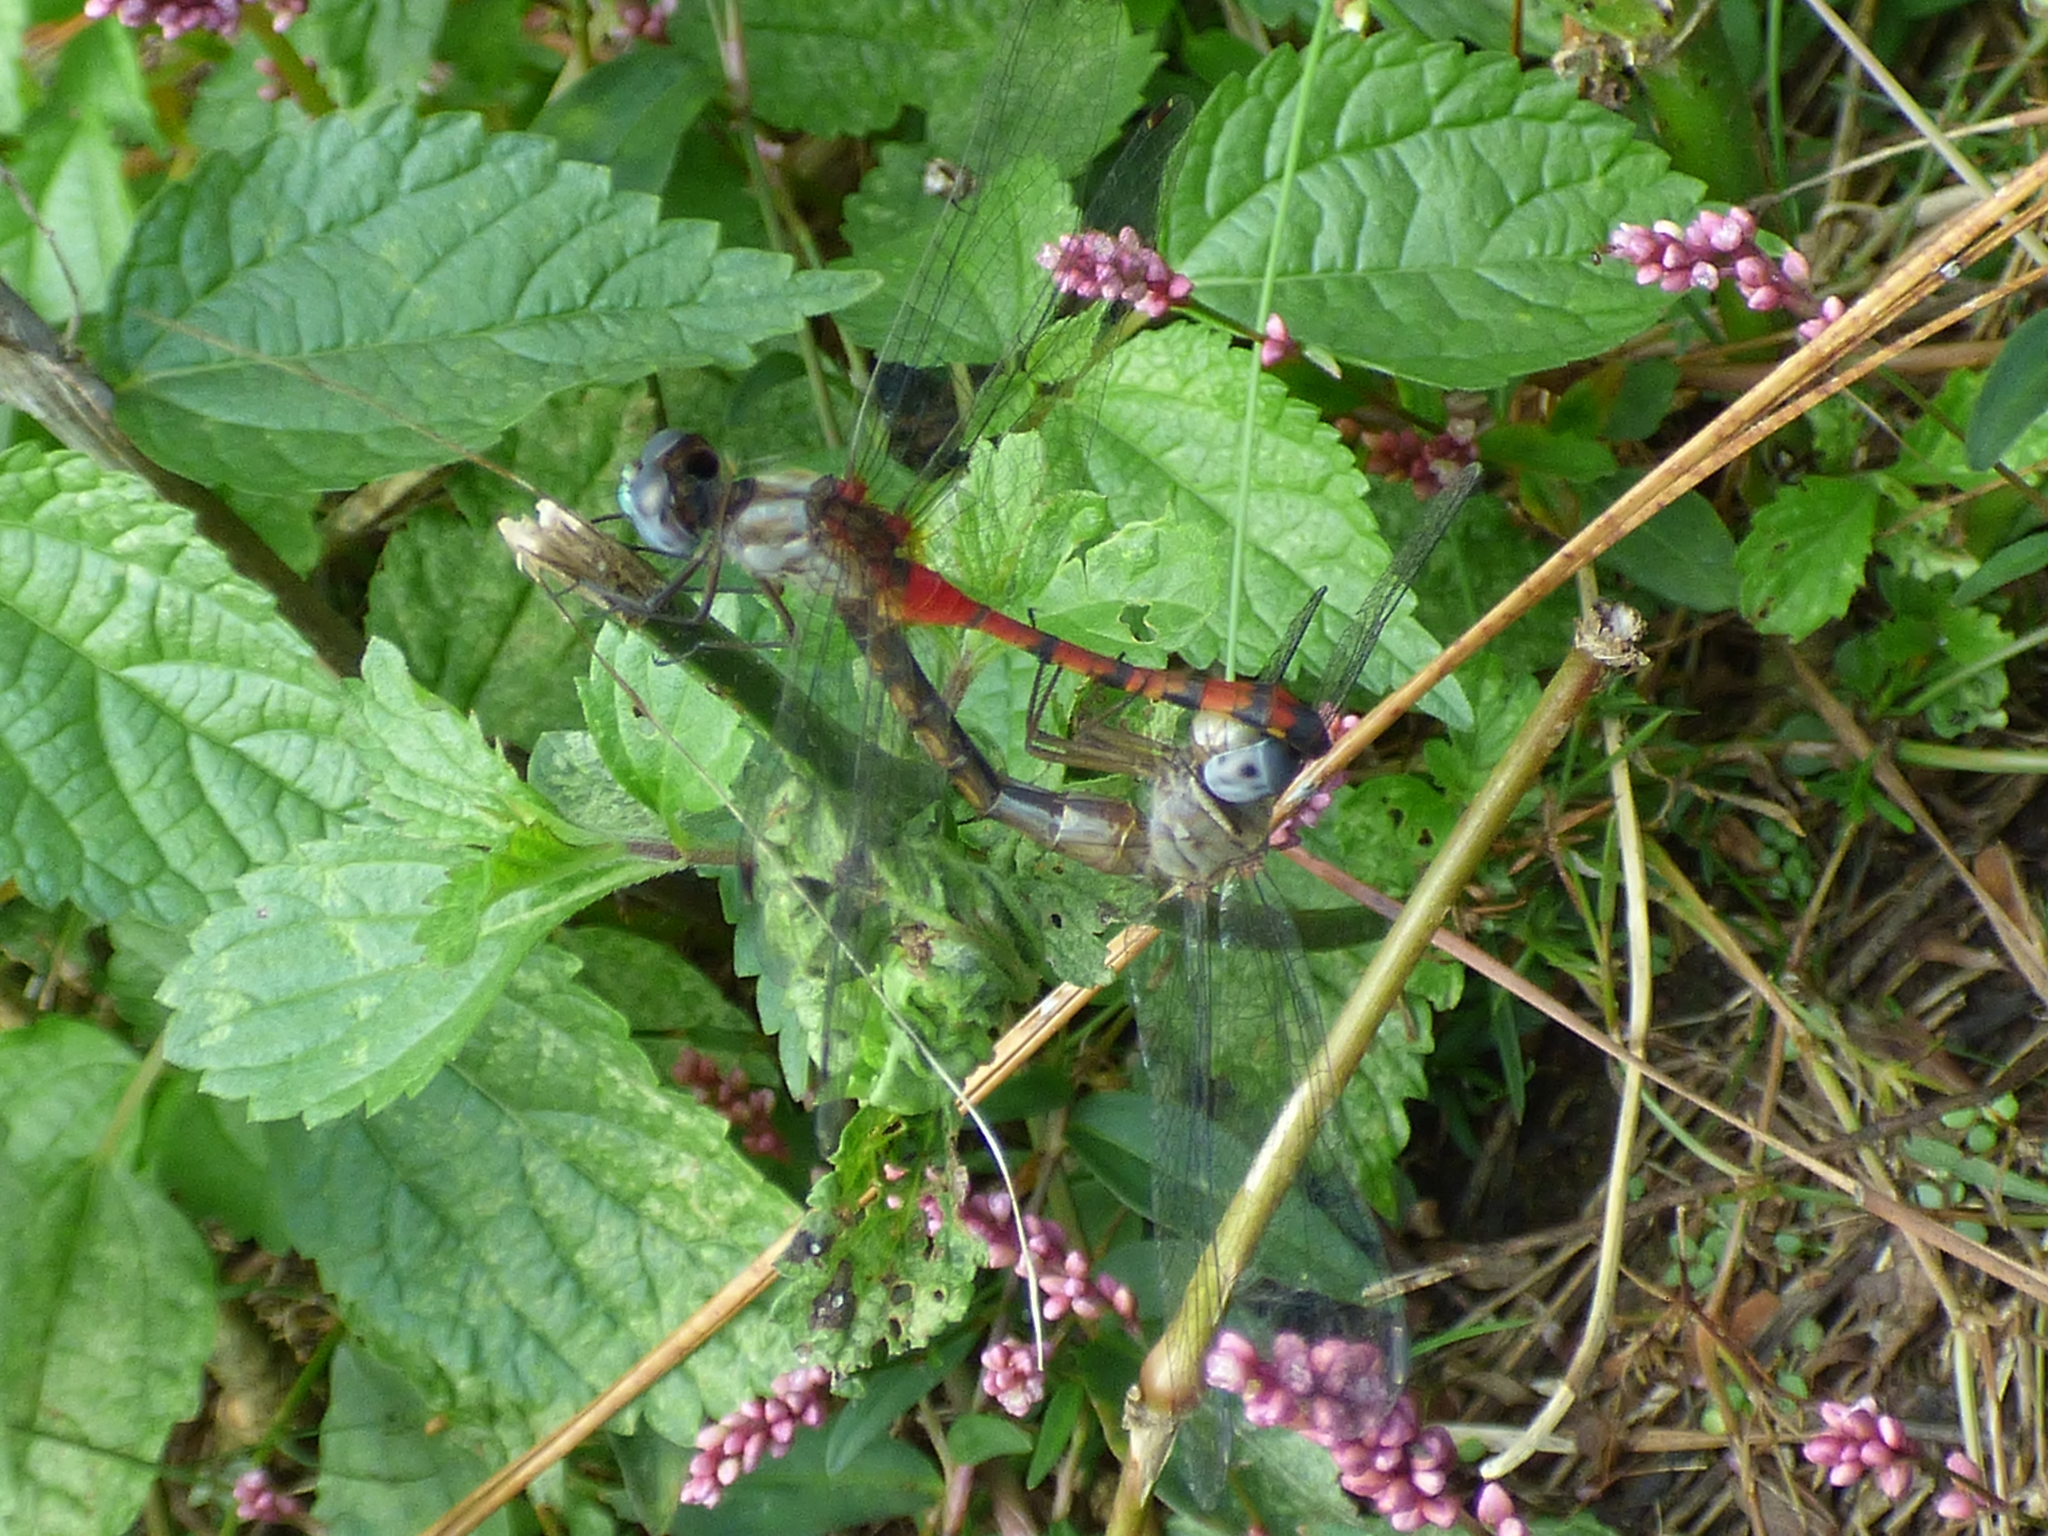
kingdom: Animalia
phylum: Arthropoda
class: Insecta
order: Odonata
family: Libellulidae
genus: Sympetrum
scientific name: Sympetrum ambiguum
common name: Blue-faced meadowhawk
